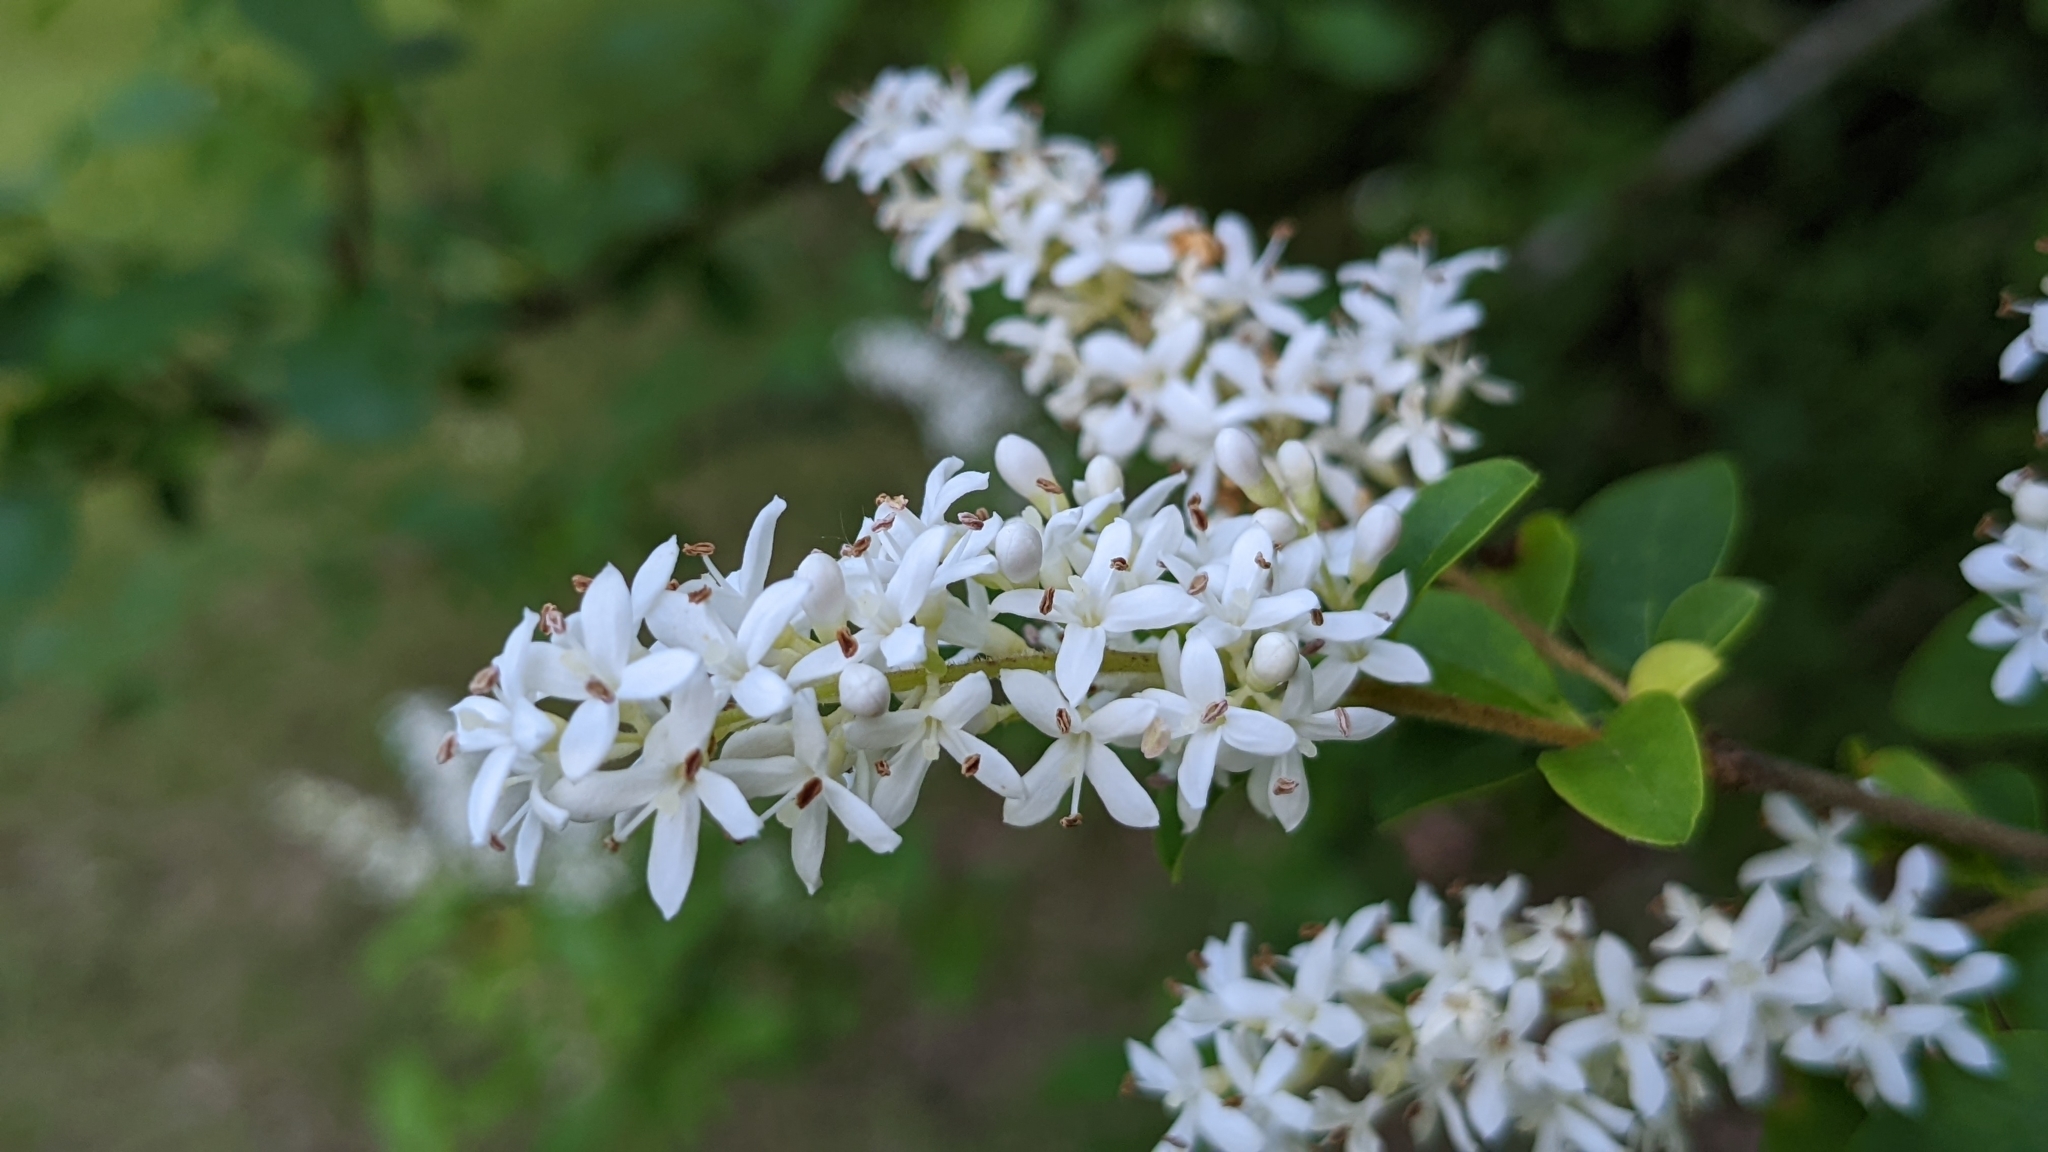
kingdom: Plantae
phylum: Tracheophyta
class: Magnoliopsida
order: Lamiales
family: Oleaceae
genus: Ligustrum
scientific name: Ligustrum sinense
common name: Chinese privet
